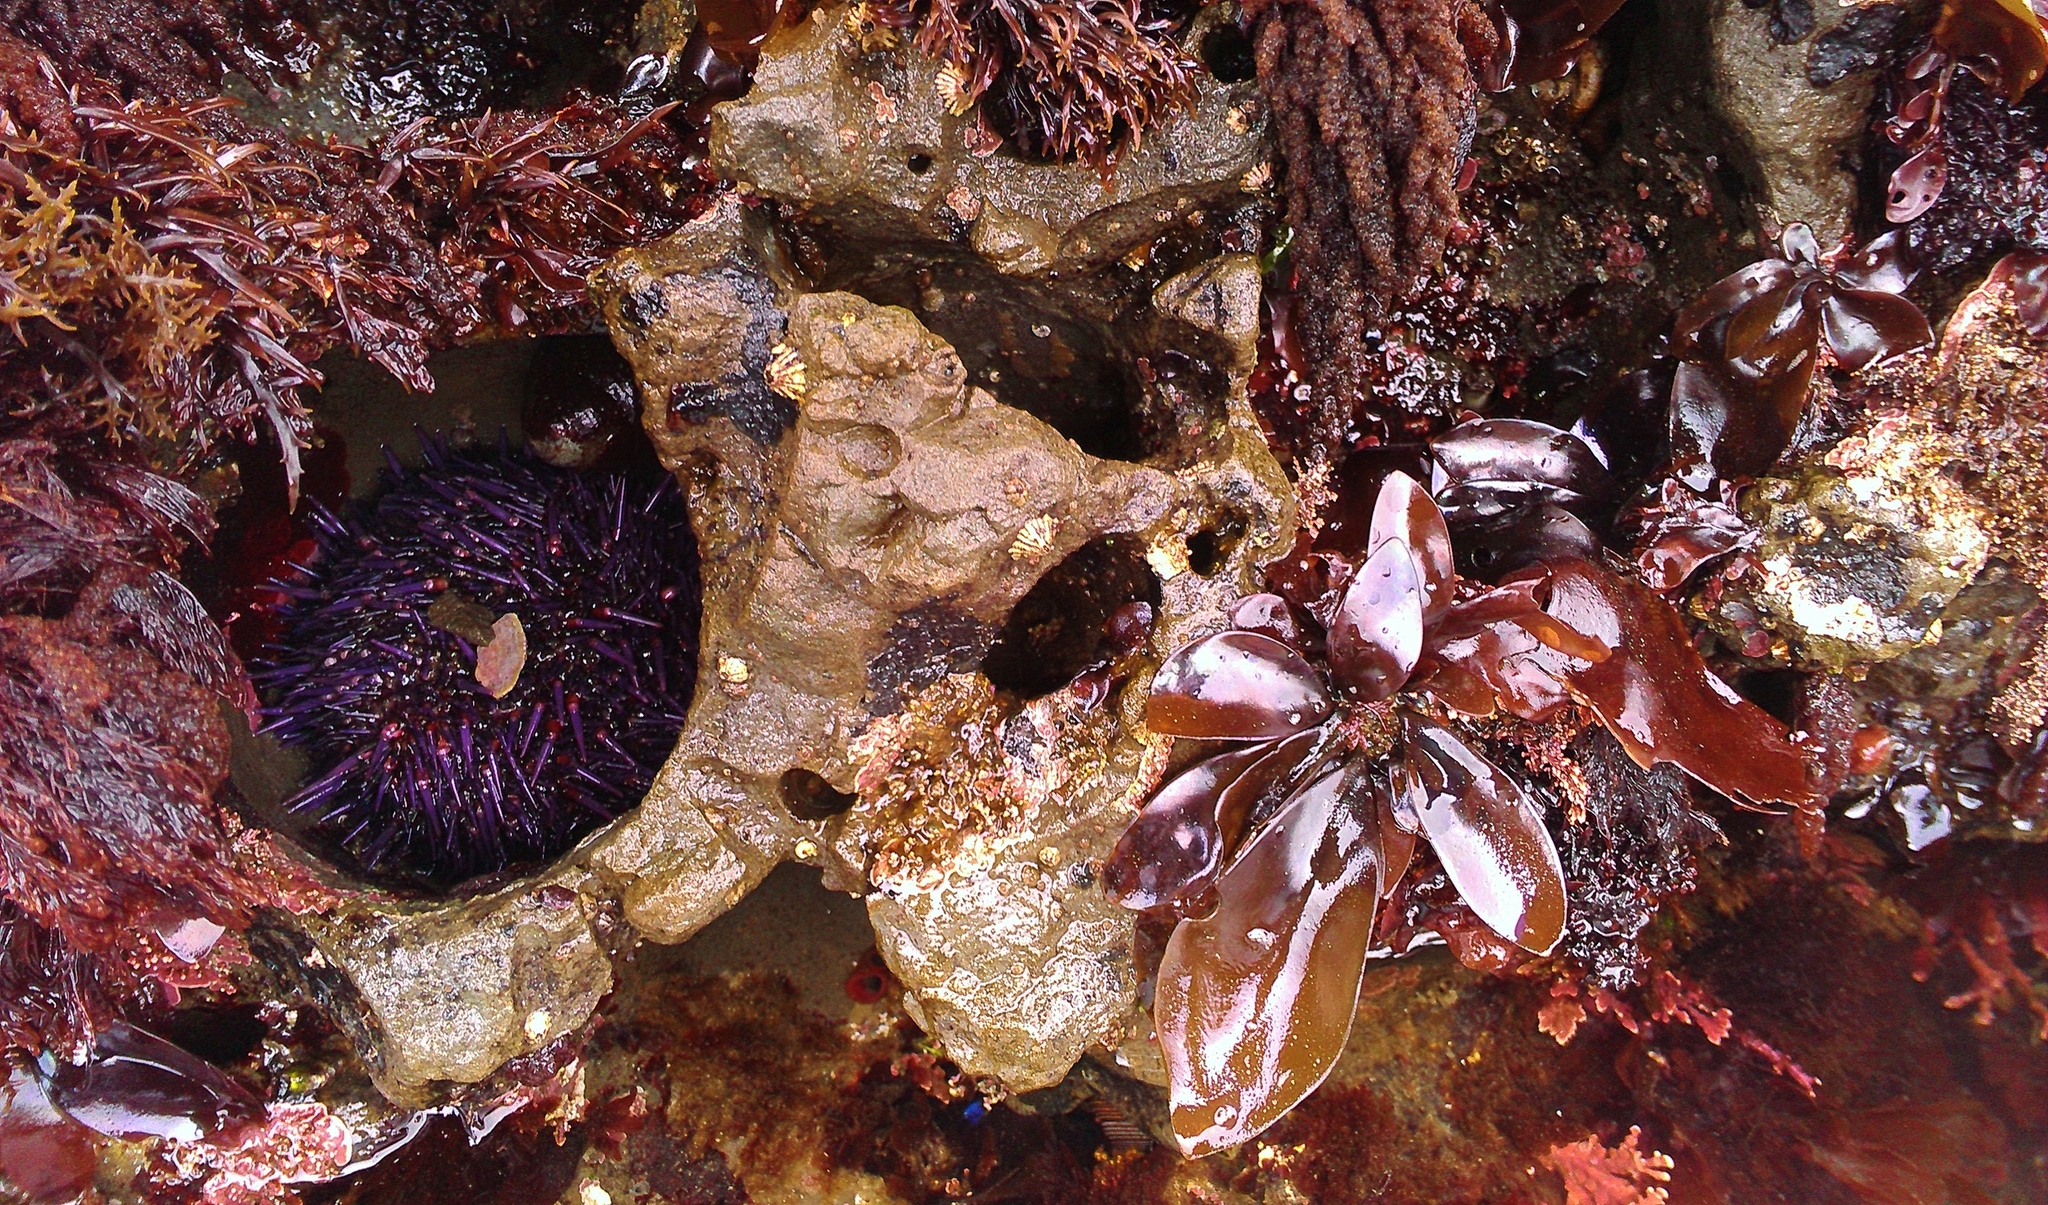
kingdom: Animalia
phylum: Echinodermata
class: Echinoidea
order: Camarodonta
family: Strongylocentrotidae
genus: Strongylocentrotus
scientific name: Strongylocentrotus purpuratus
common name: Purple sea urchin
